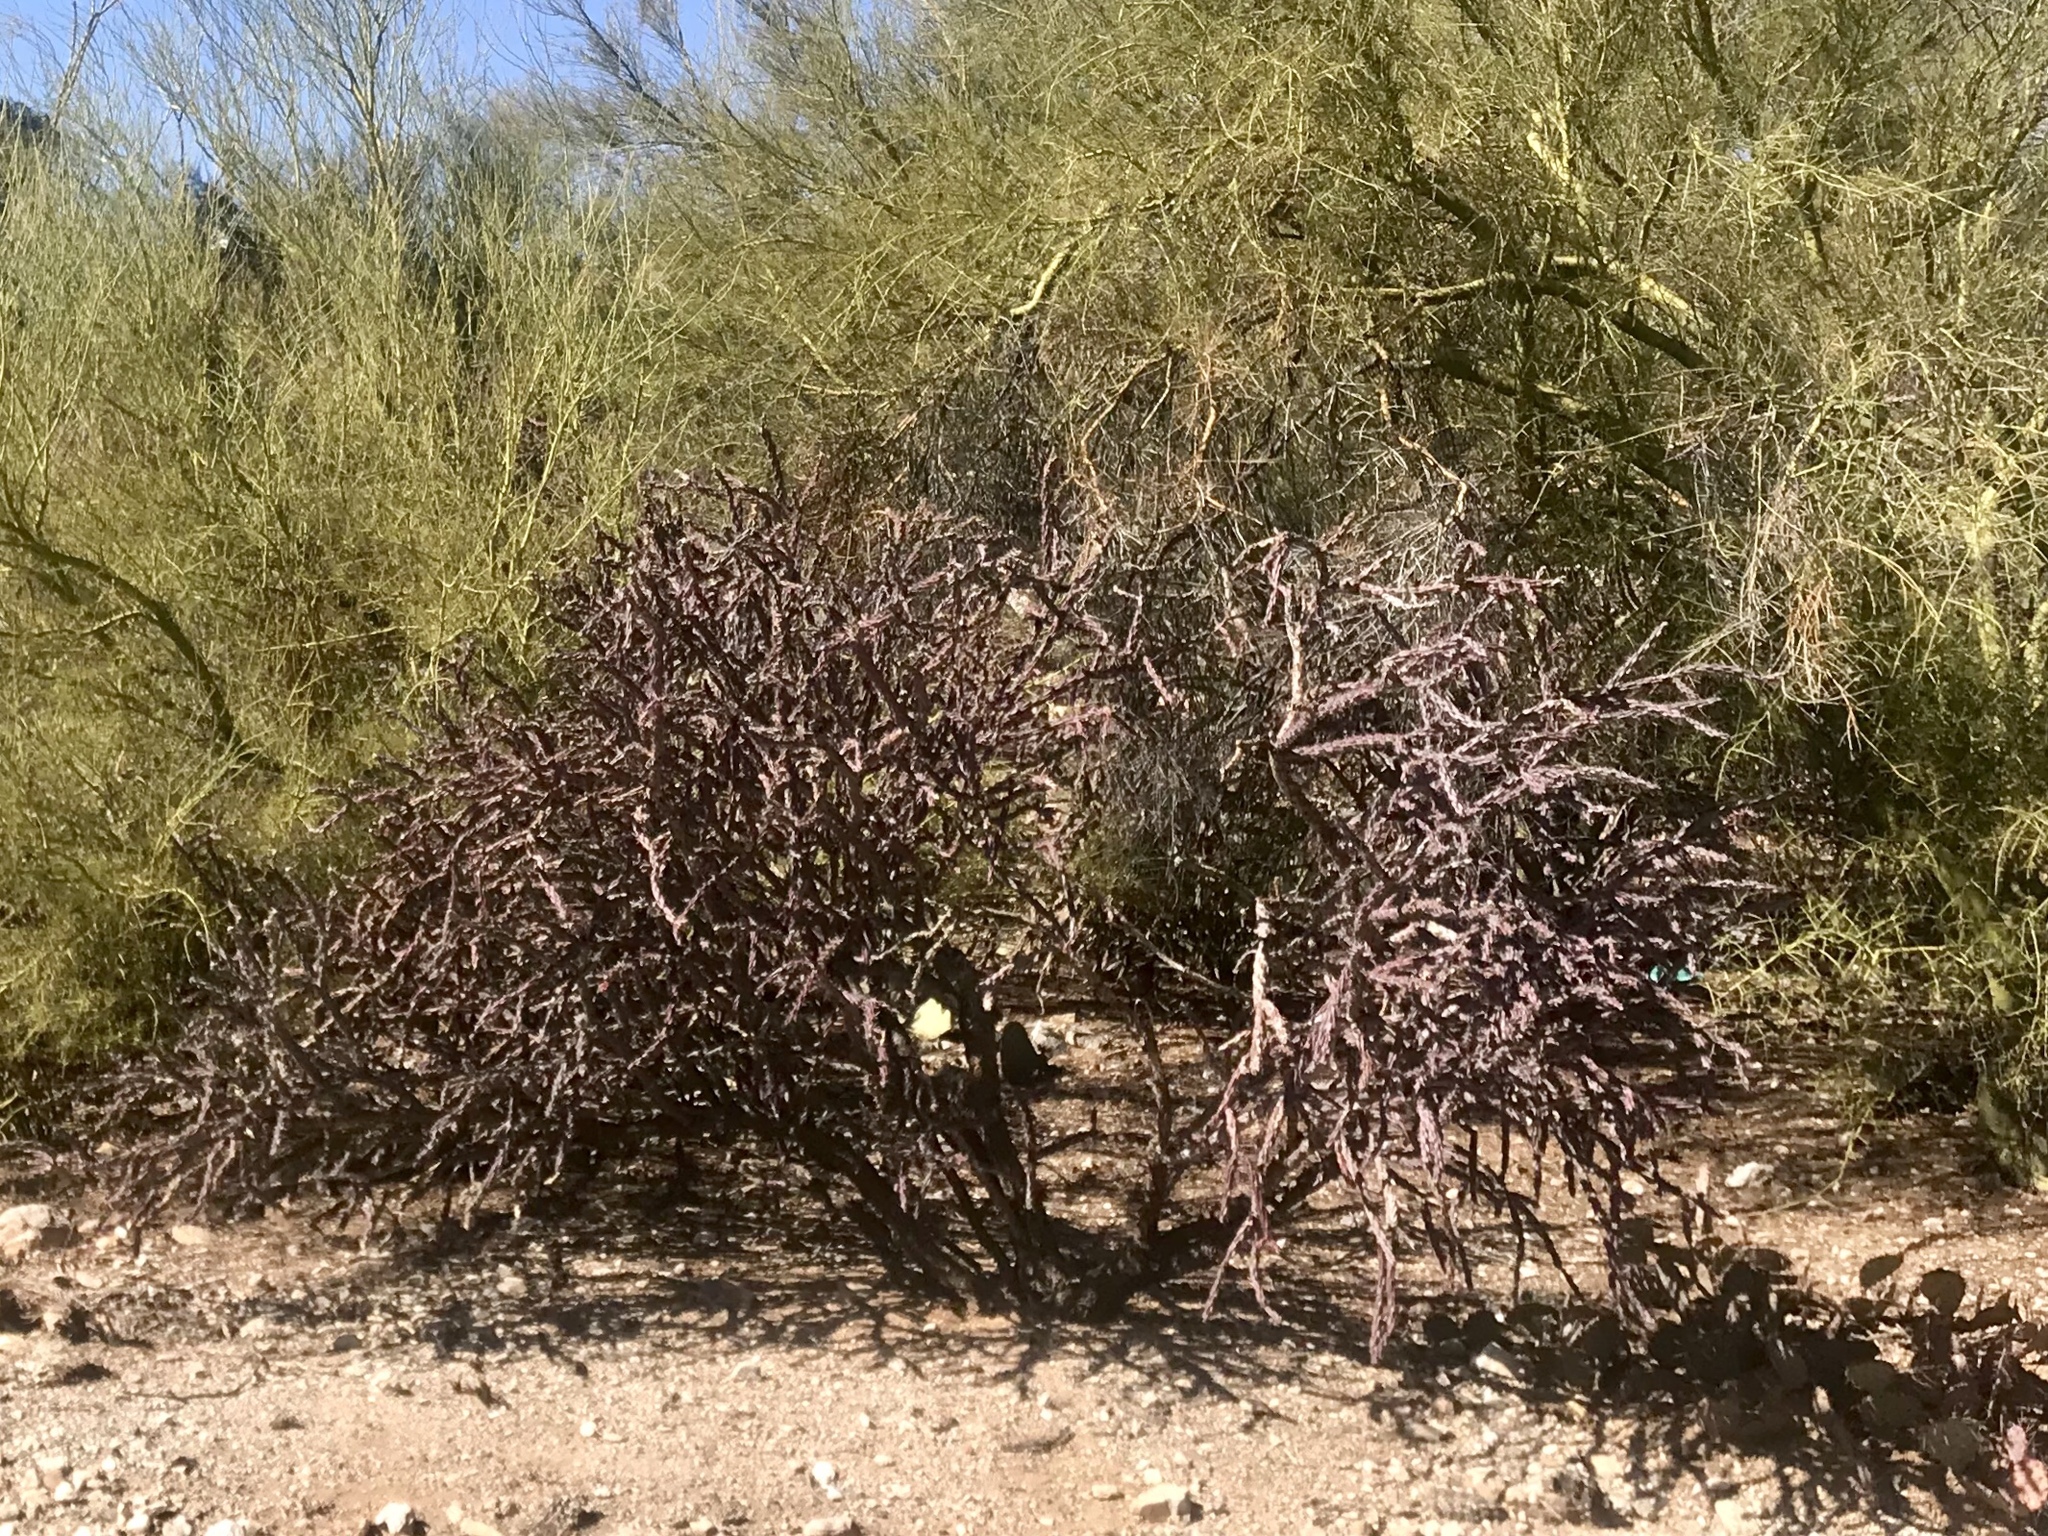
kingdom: Plantae
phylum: Tracheophyta
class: Magnoliopsida
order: Caryophyllales
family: Cactaceae
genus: Cylindropuntia
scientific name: Cylindropuntia thurberi
